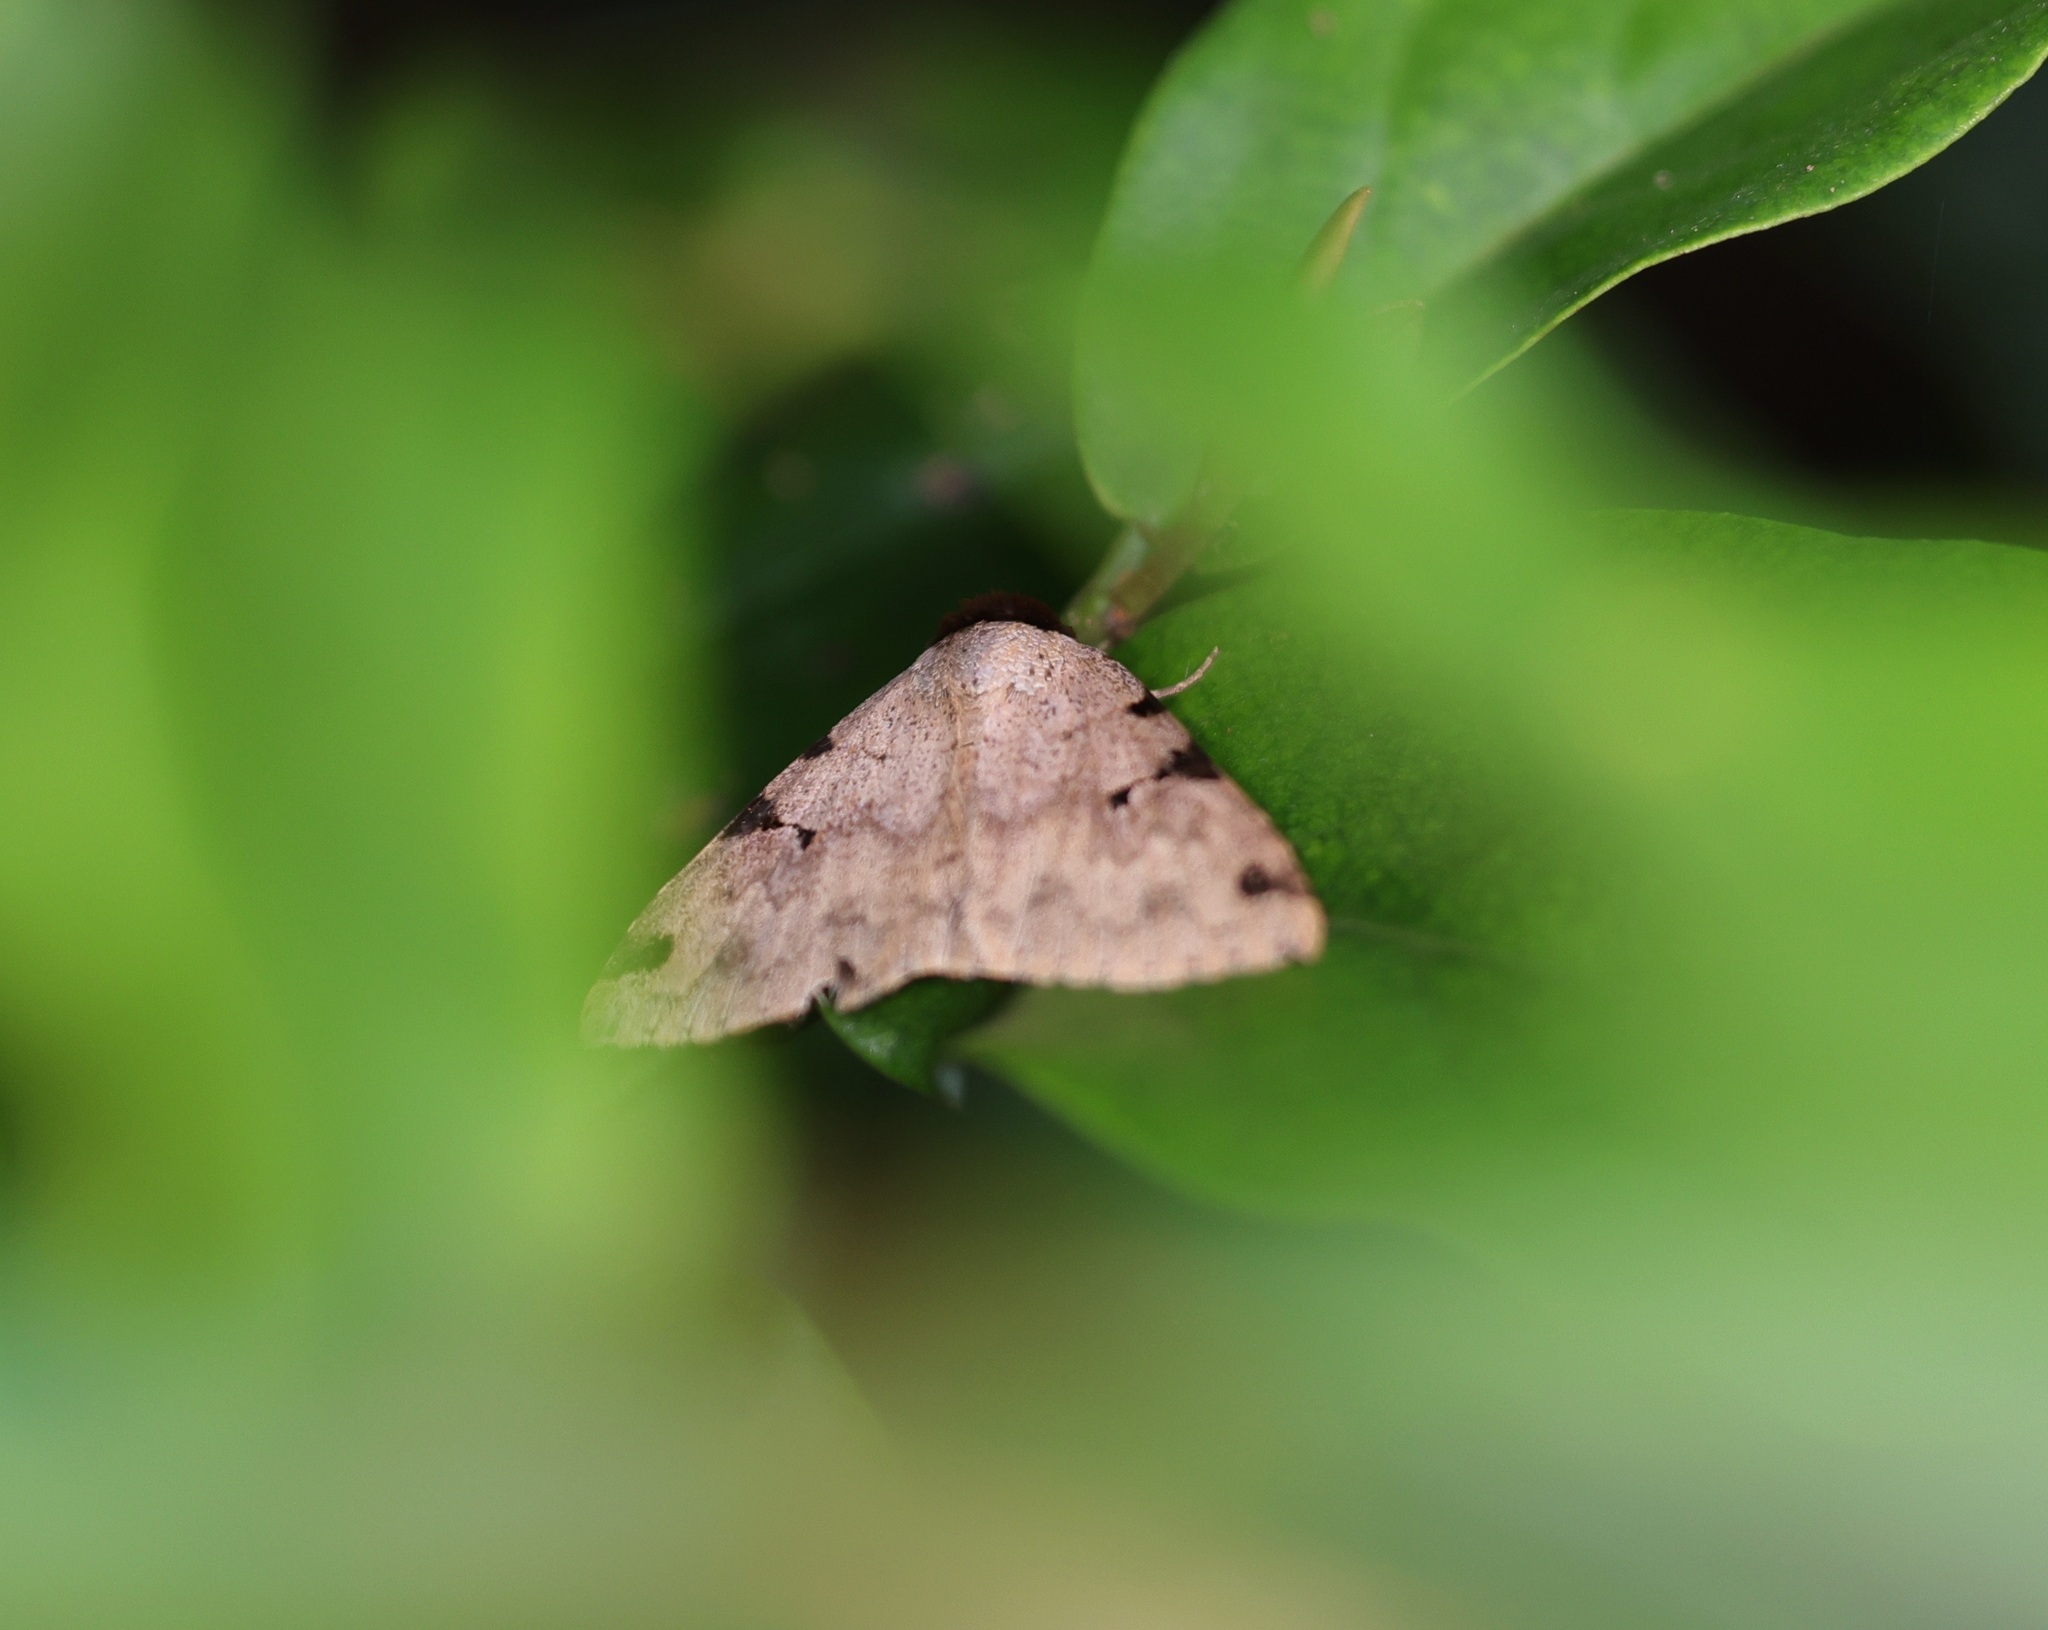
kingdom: Animalia
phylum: Arthropoda
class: Insecta
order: Lepidoptera
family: Erebidae
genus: Rema
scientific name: Rema costimacula
